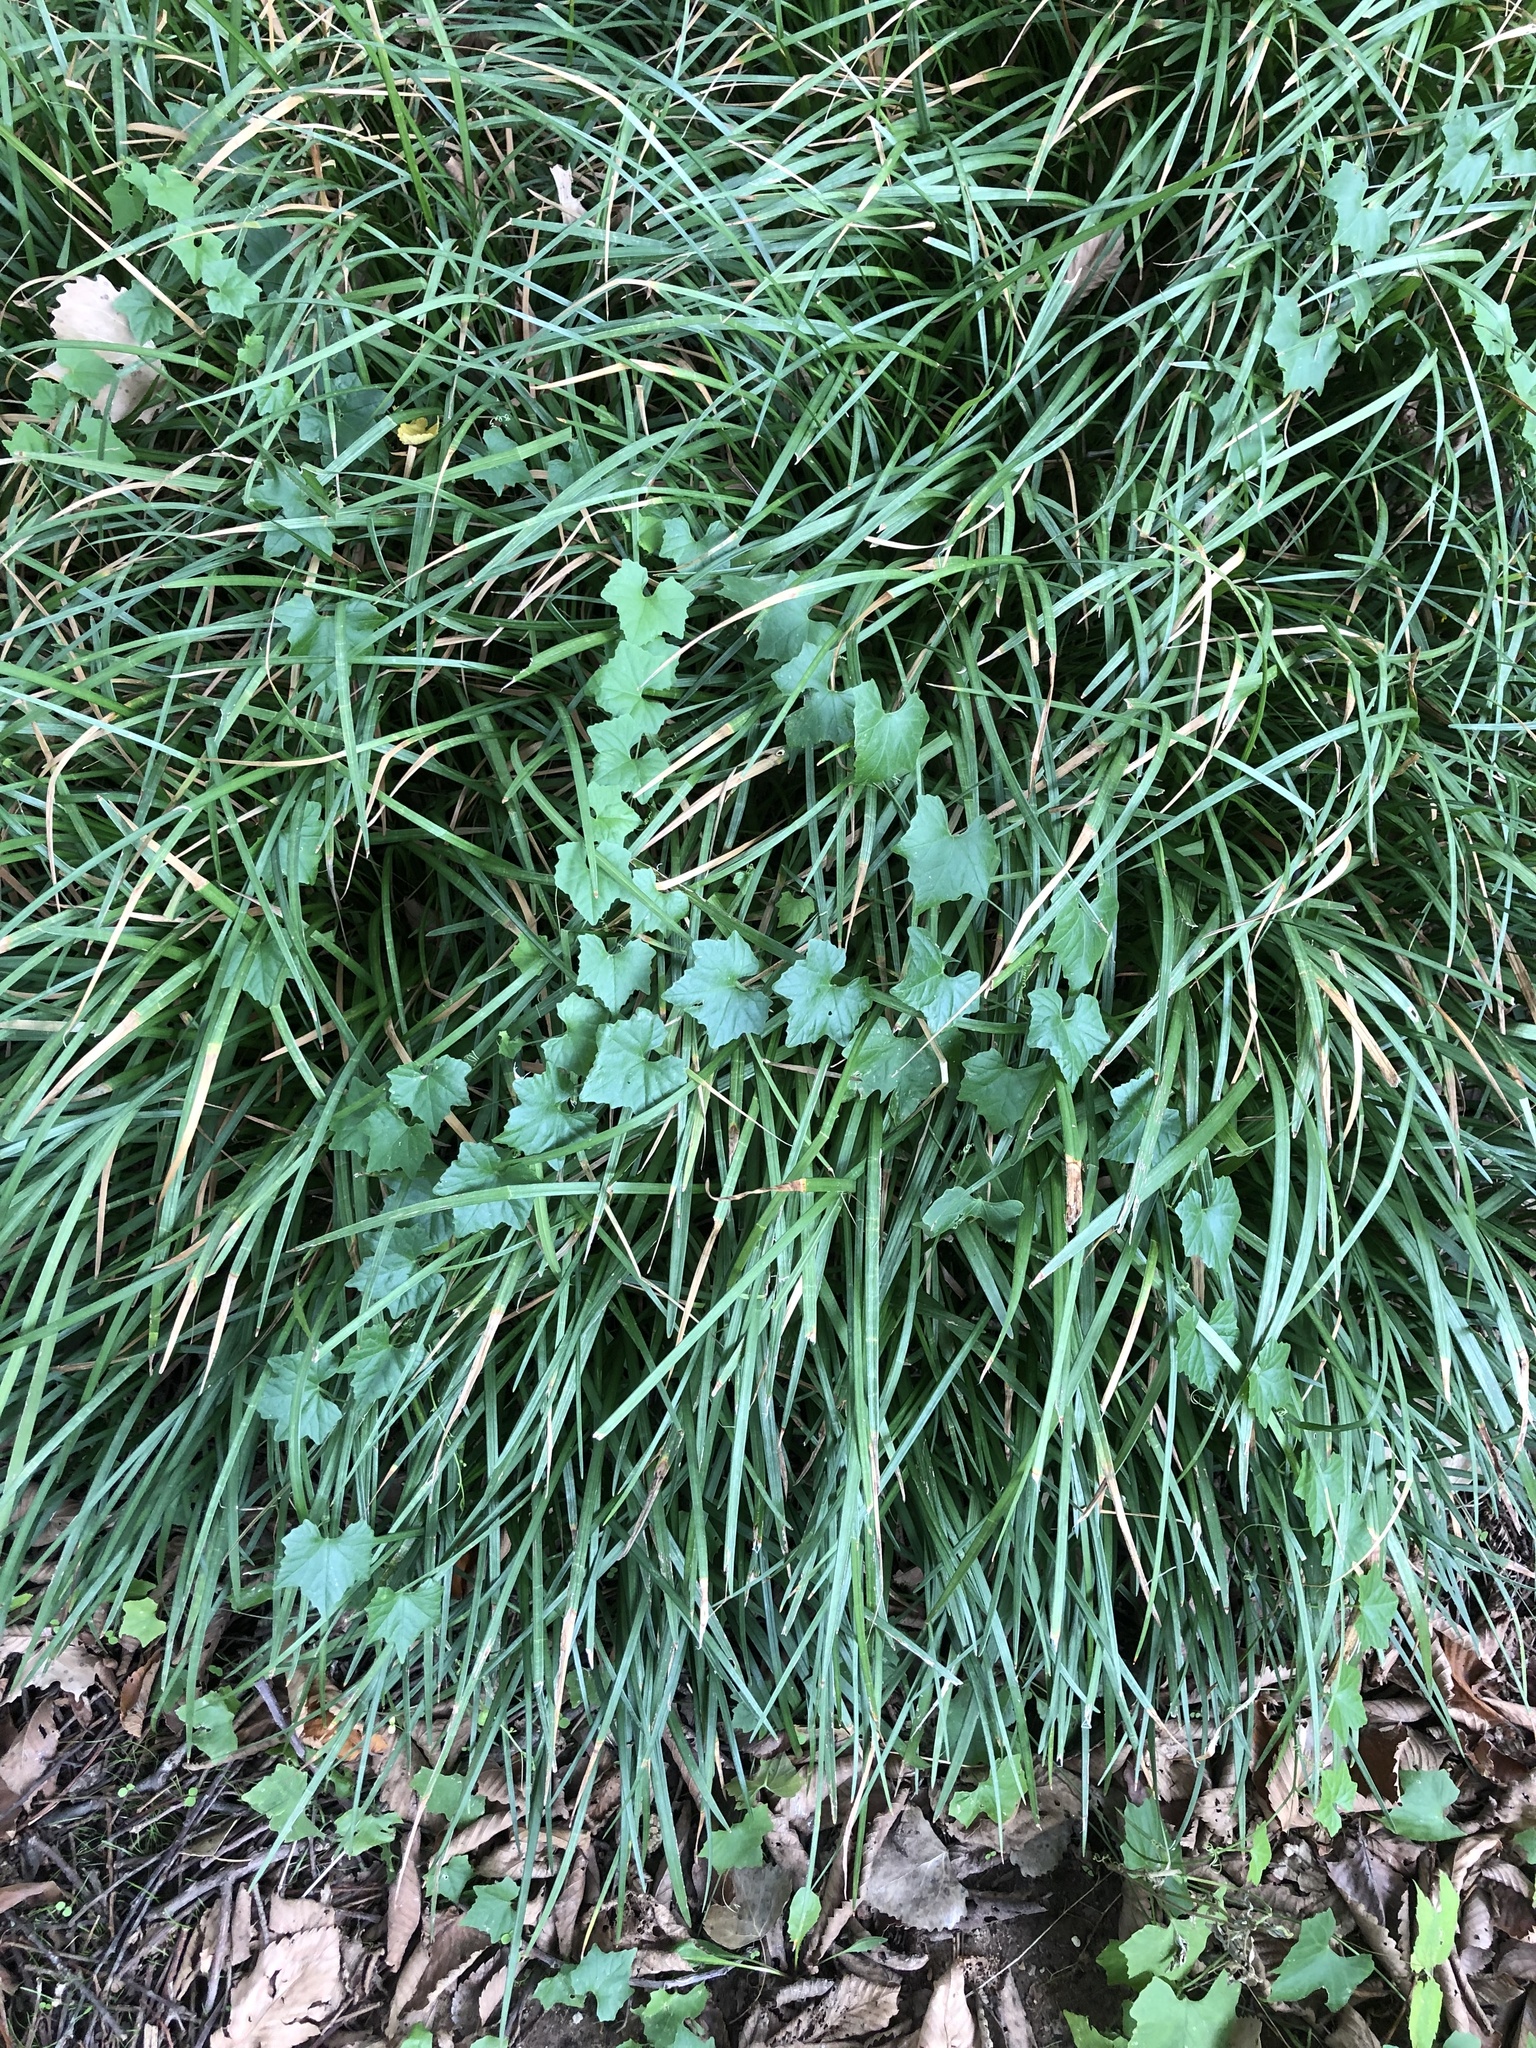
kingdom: Plantae
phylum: Tracheophyta
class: Magnoliopsida
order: Cucurbitales
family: Cucurbitaceae
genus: Melothria
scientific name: Melothria pendula
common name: Creeping-cucumber
